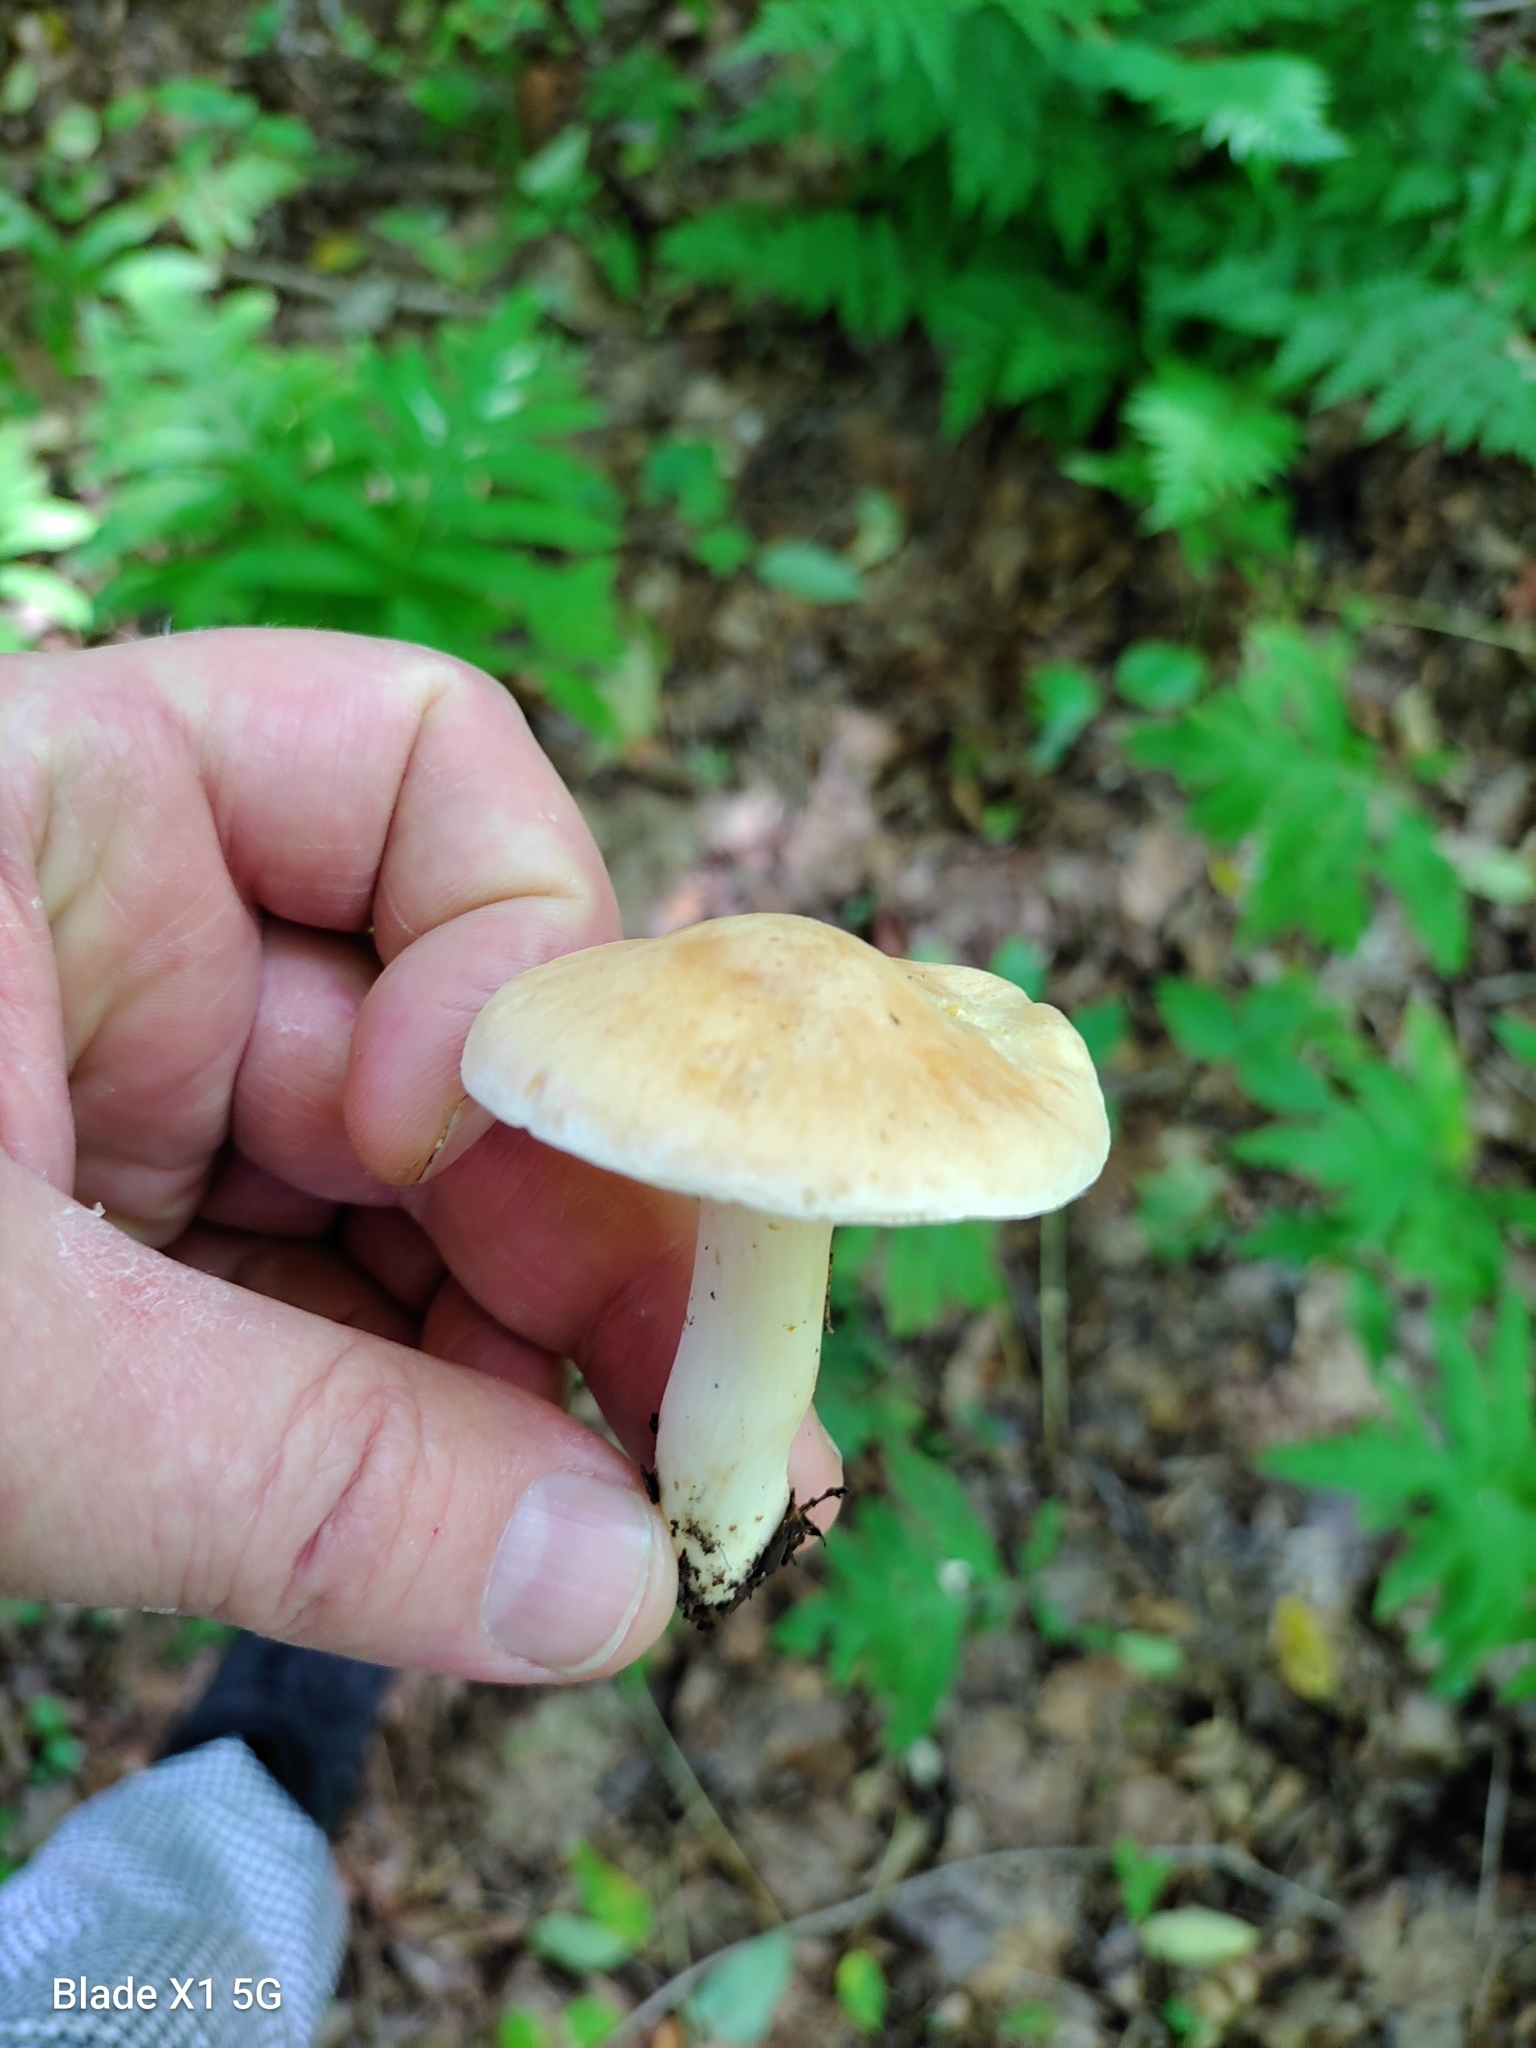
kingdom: Fungi
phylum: Basidiomycota
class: Agaricomycetes
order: Agaricales
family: Hygrophoraceae
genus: Cuphophyllus
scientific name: Cuphophyllus pratensis
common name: Meadow waxcap
